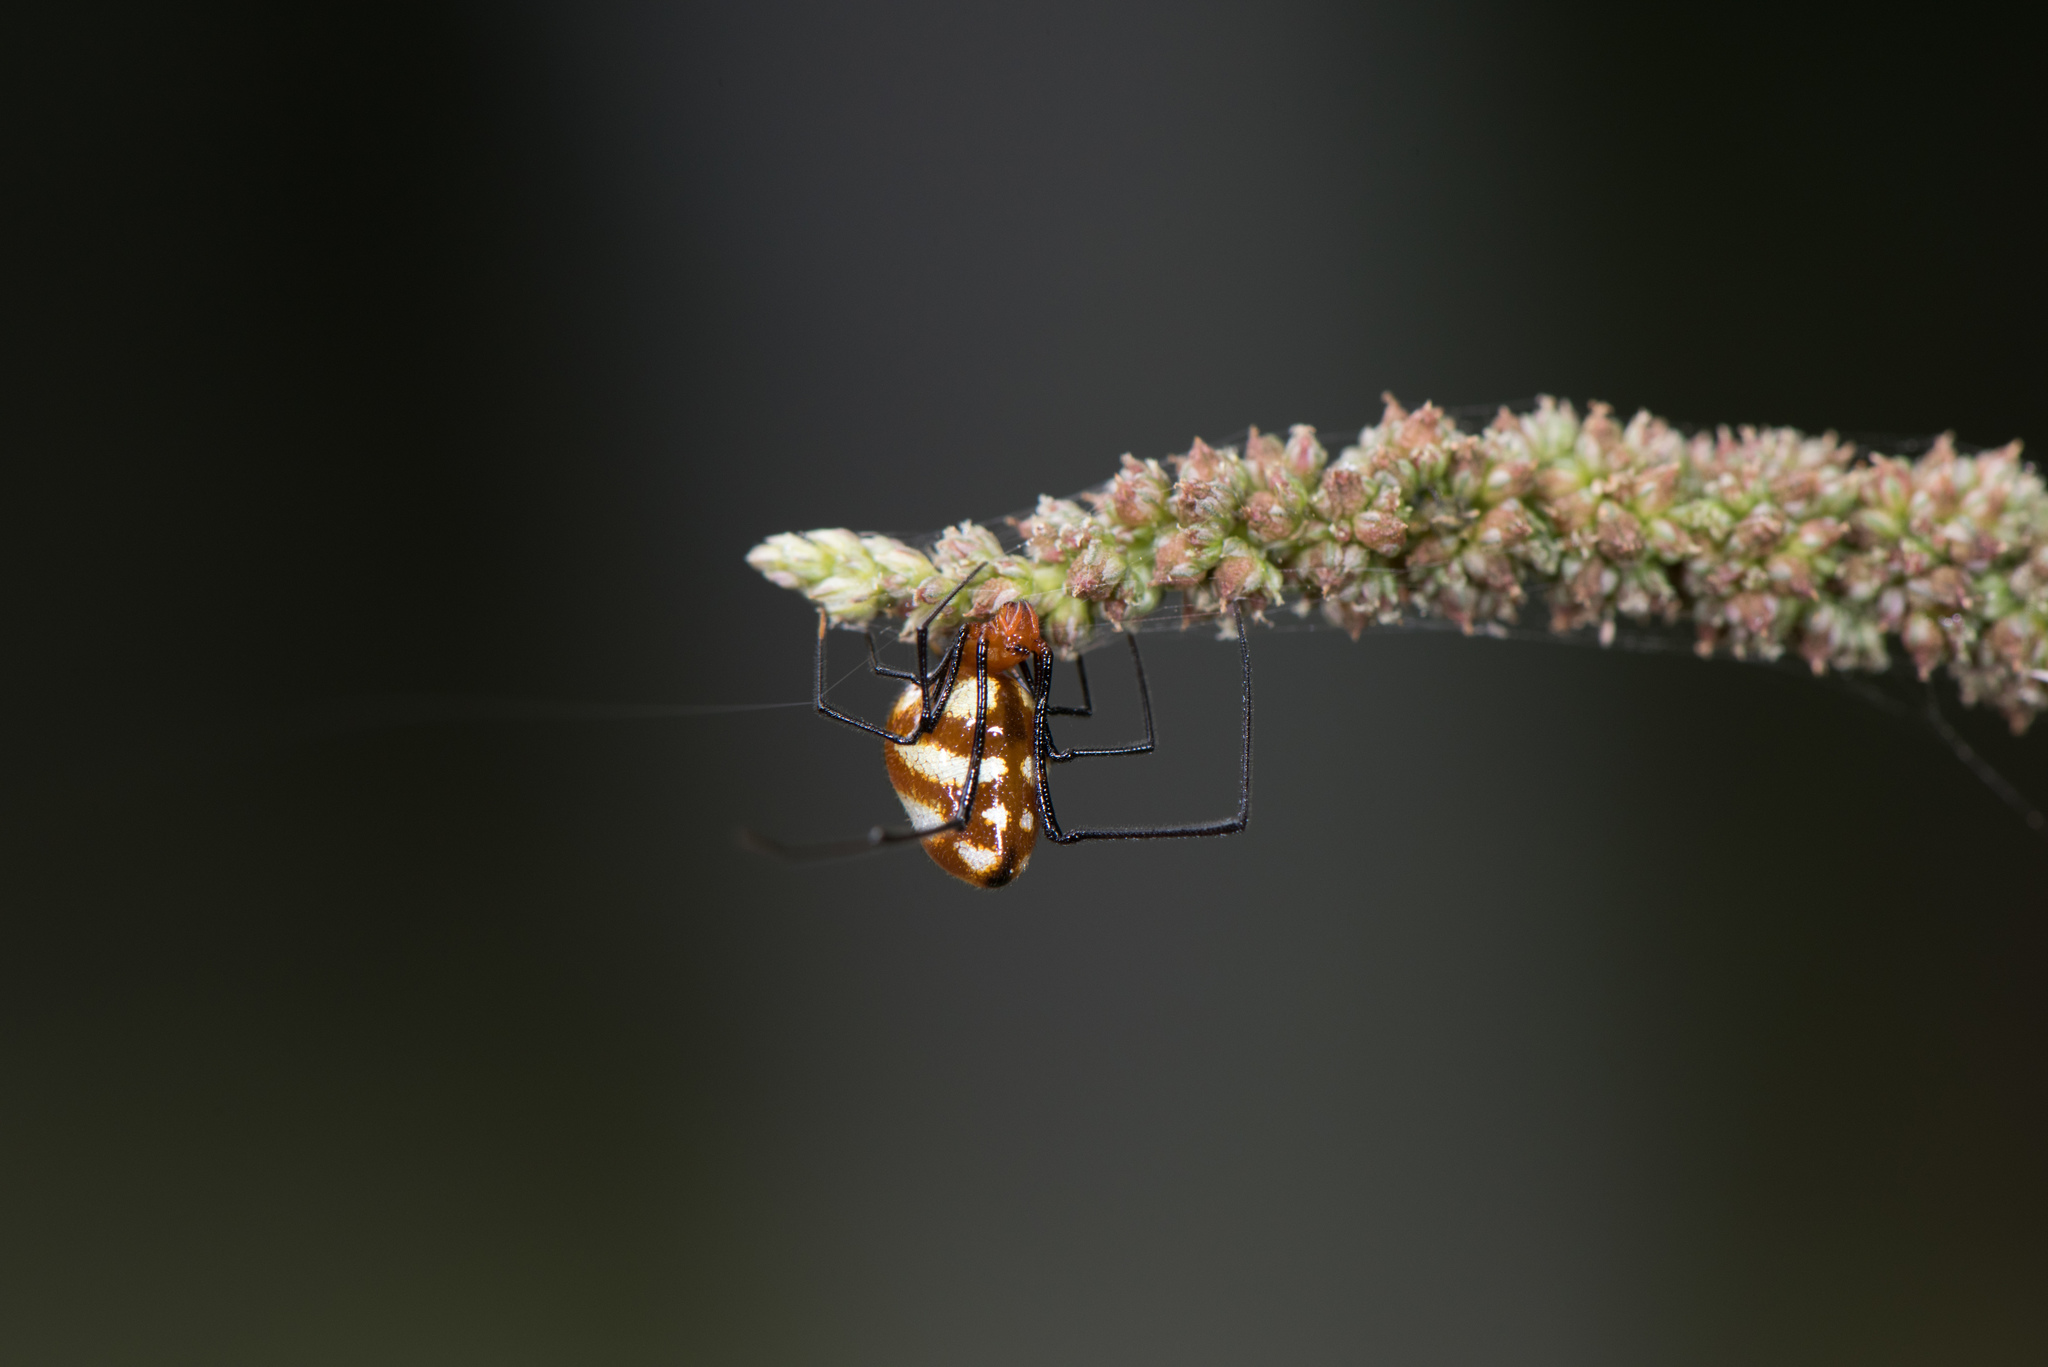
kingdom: Animalia
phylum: Arthropoda
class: Arachnida
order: Araneae
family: Theridiidae
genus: Argyrodes
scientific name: Argyrodes flavescens
